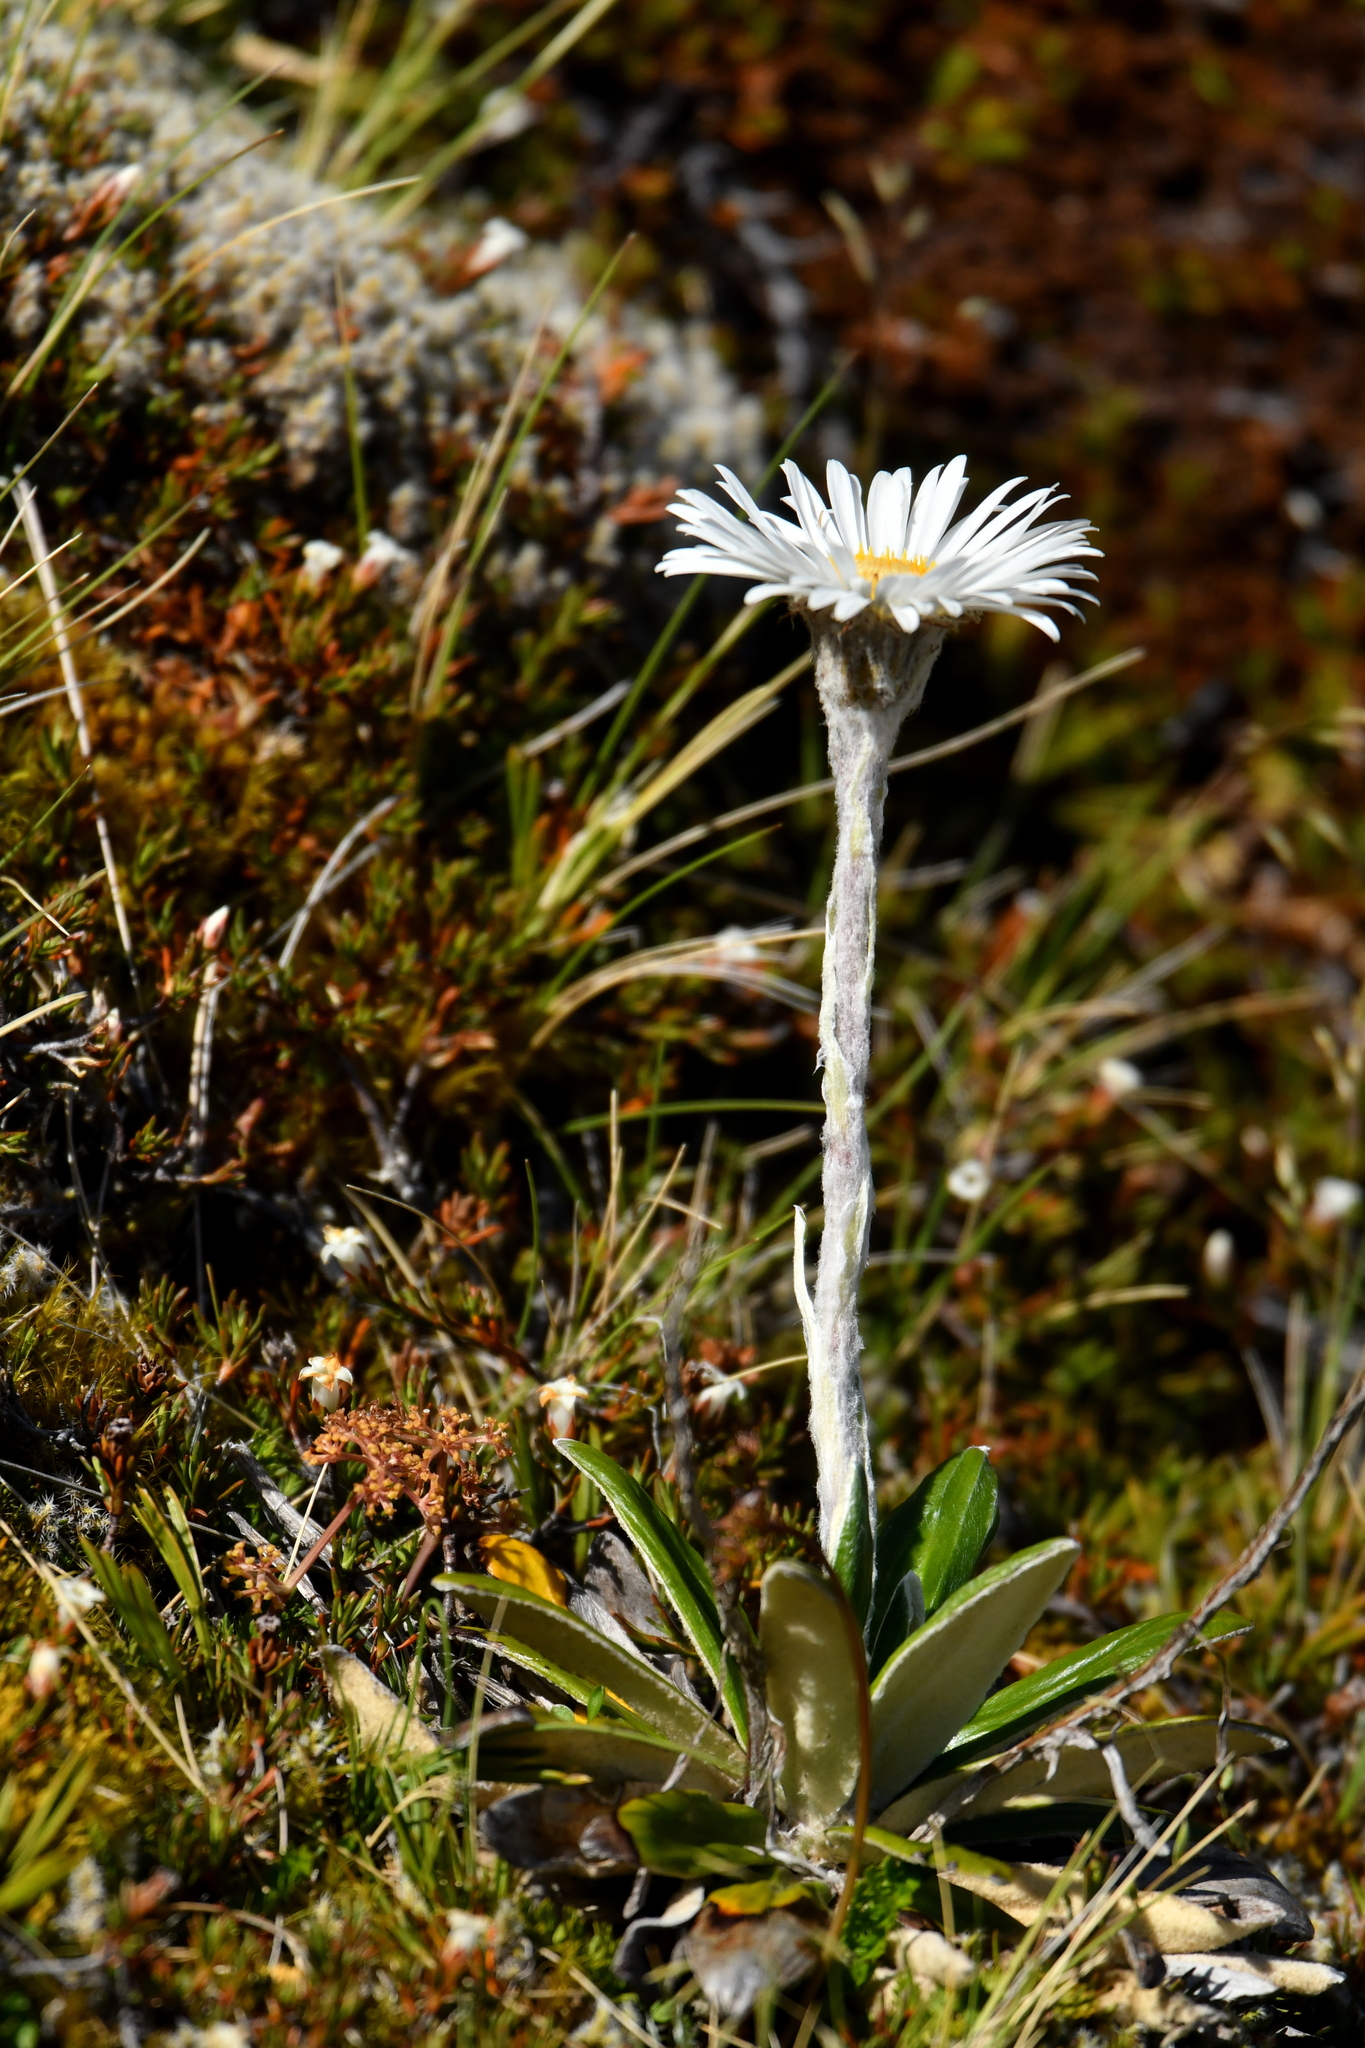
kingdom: Plantae
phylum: Tracheophyta
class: Magnoliopsida
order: Asterales
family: Asteraceae
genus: Celmisia
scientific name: Celmisia spectabilis
